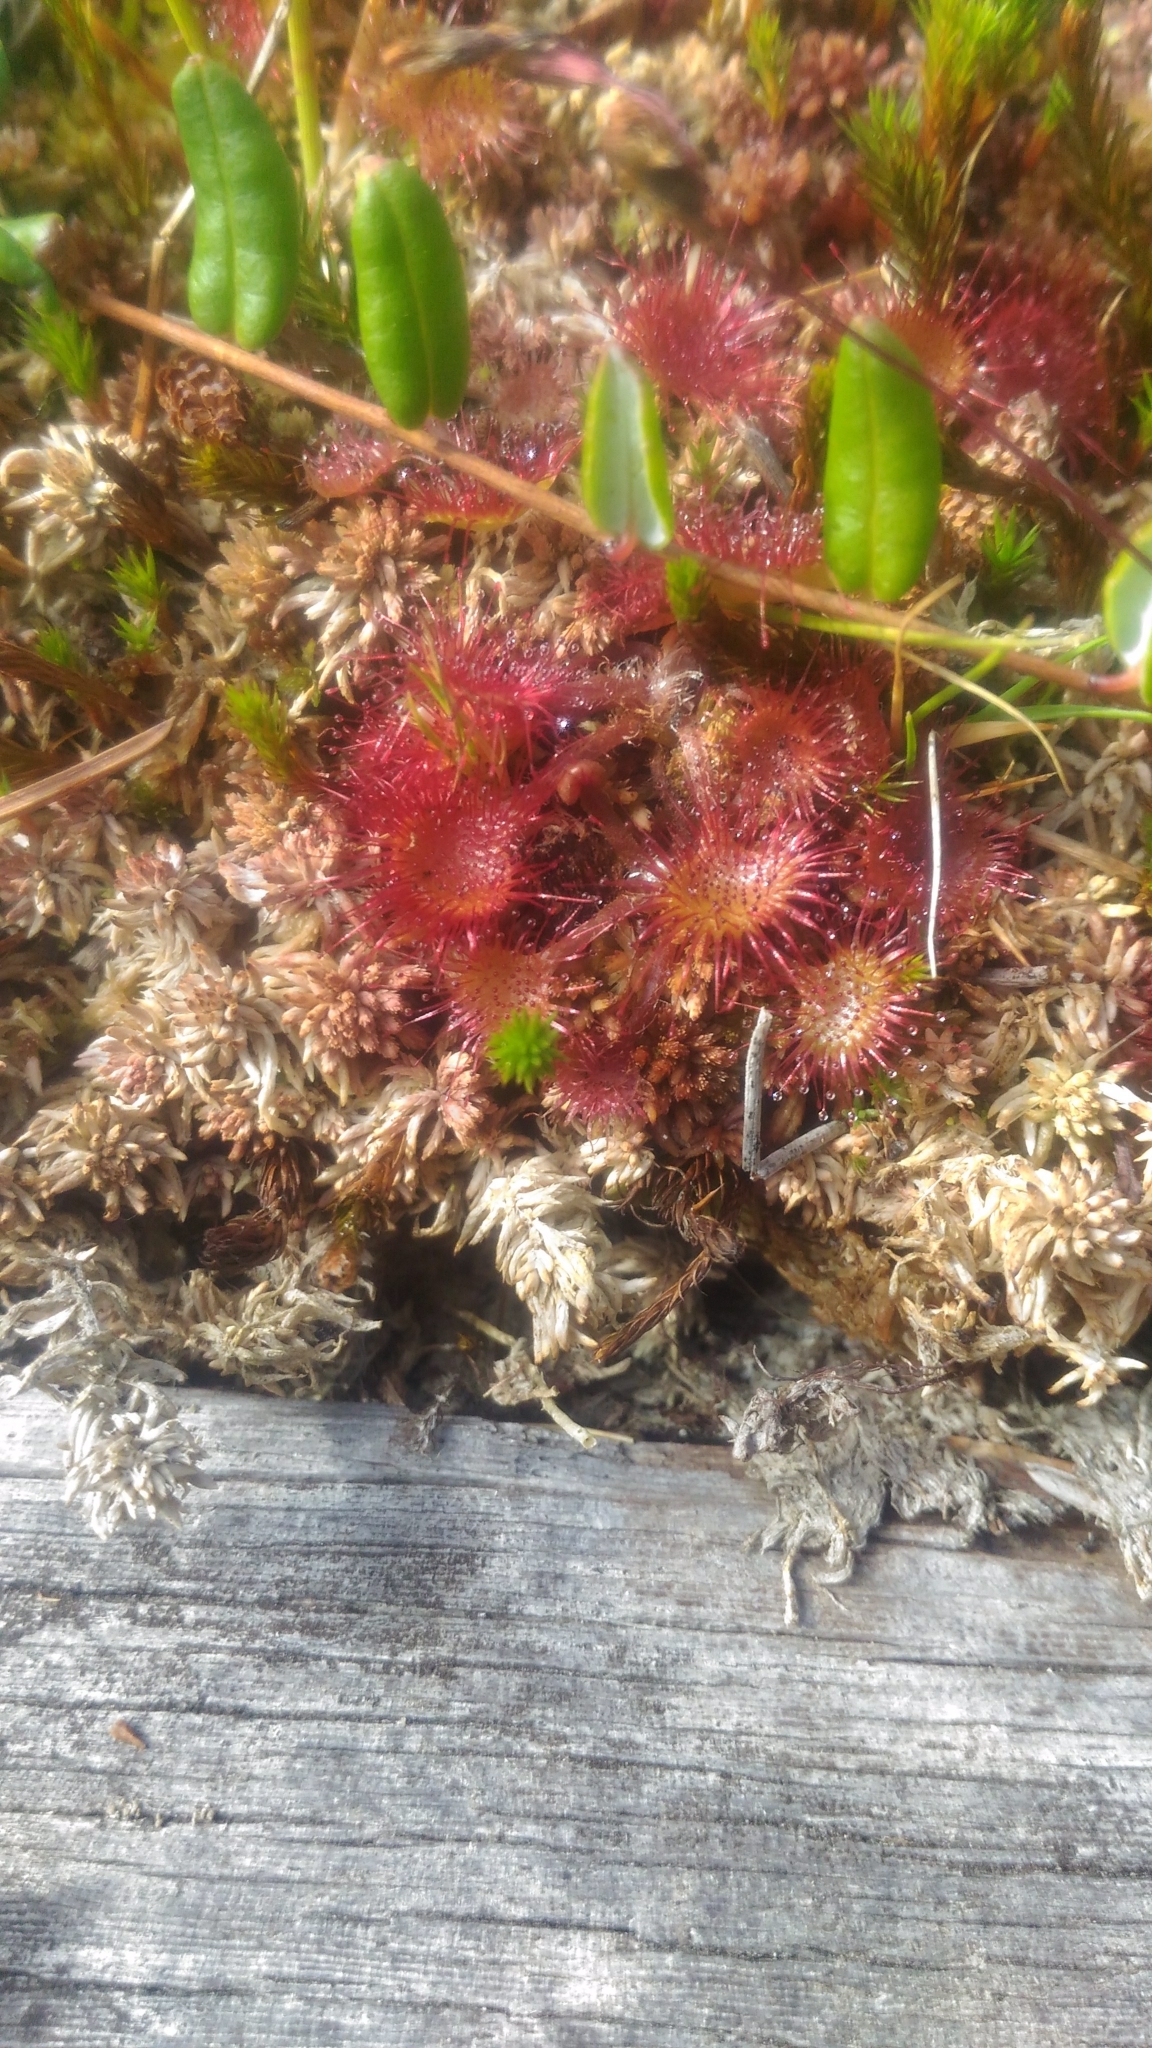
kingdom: Plantae
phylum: Tracheophyta
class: Magnoliopsida
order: Caryophyllales
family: Droseraceae
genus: Drosera
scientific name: Drosera rotundifolia
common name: Round-leaved sundew
